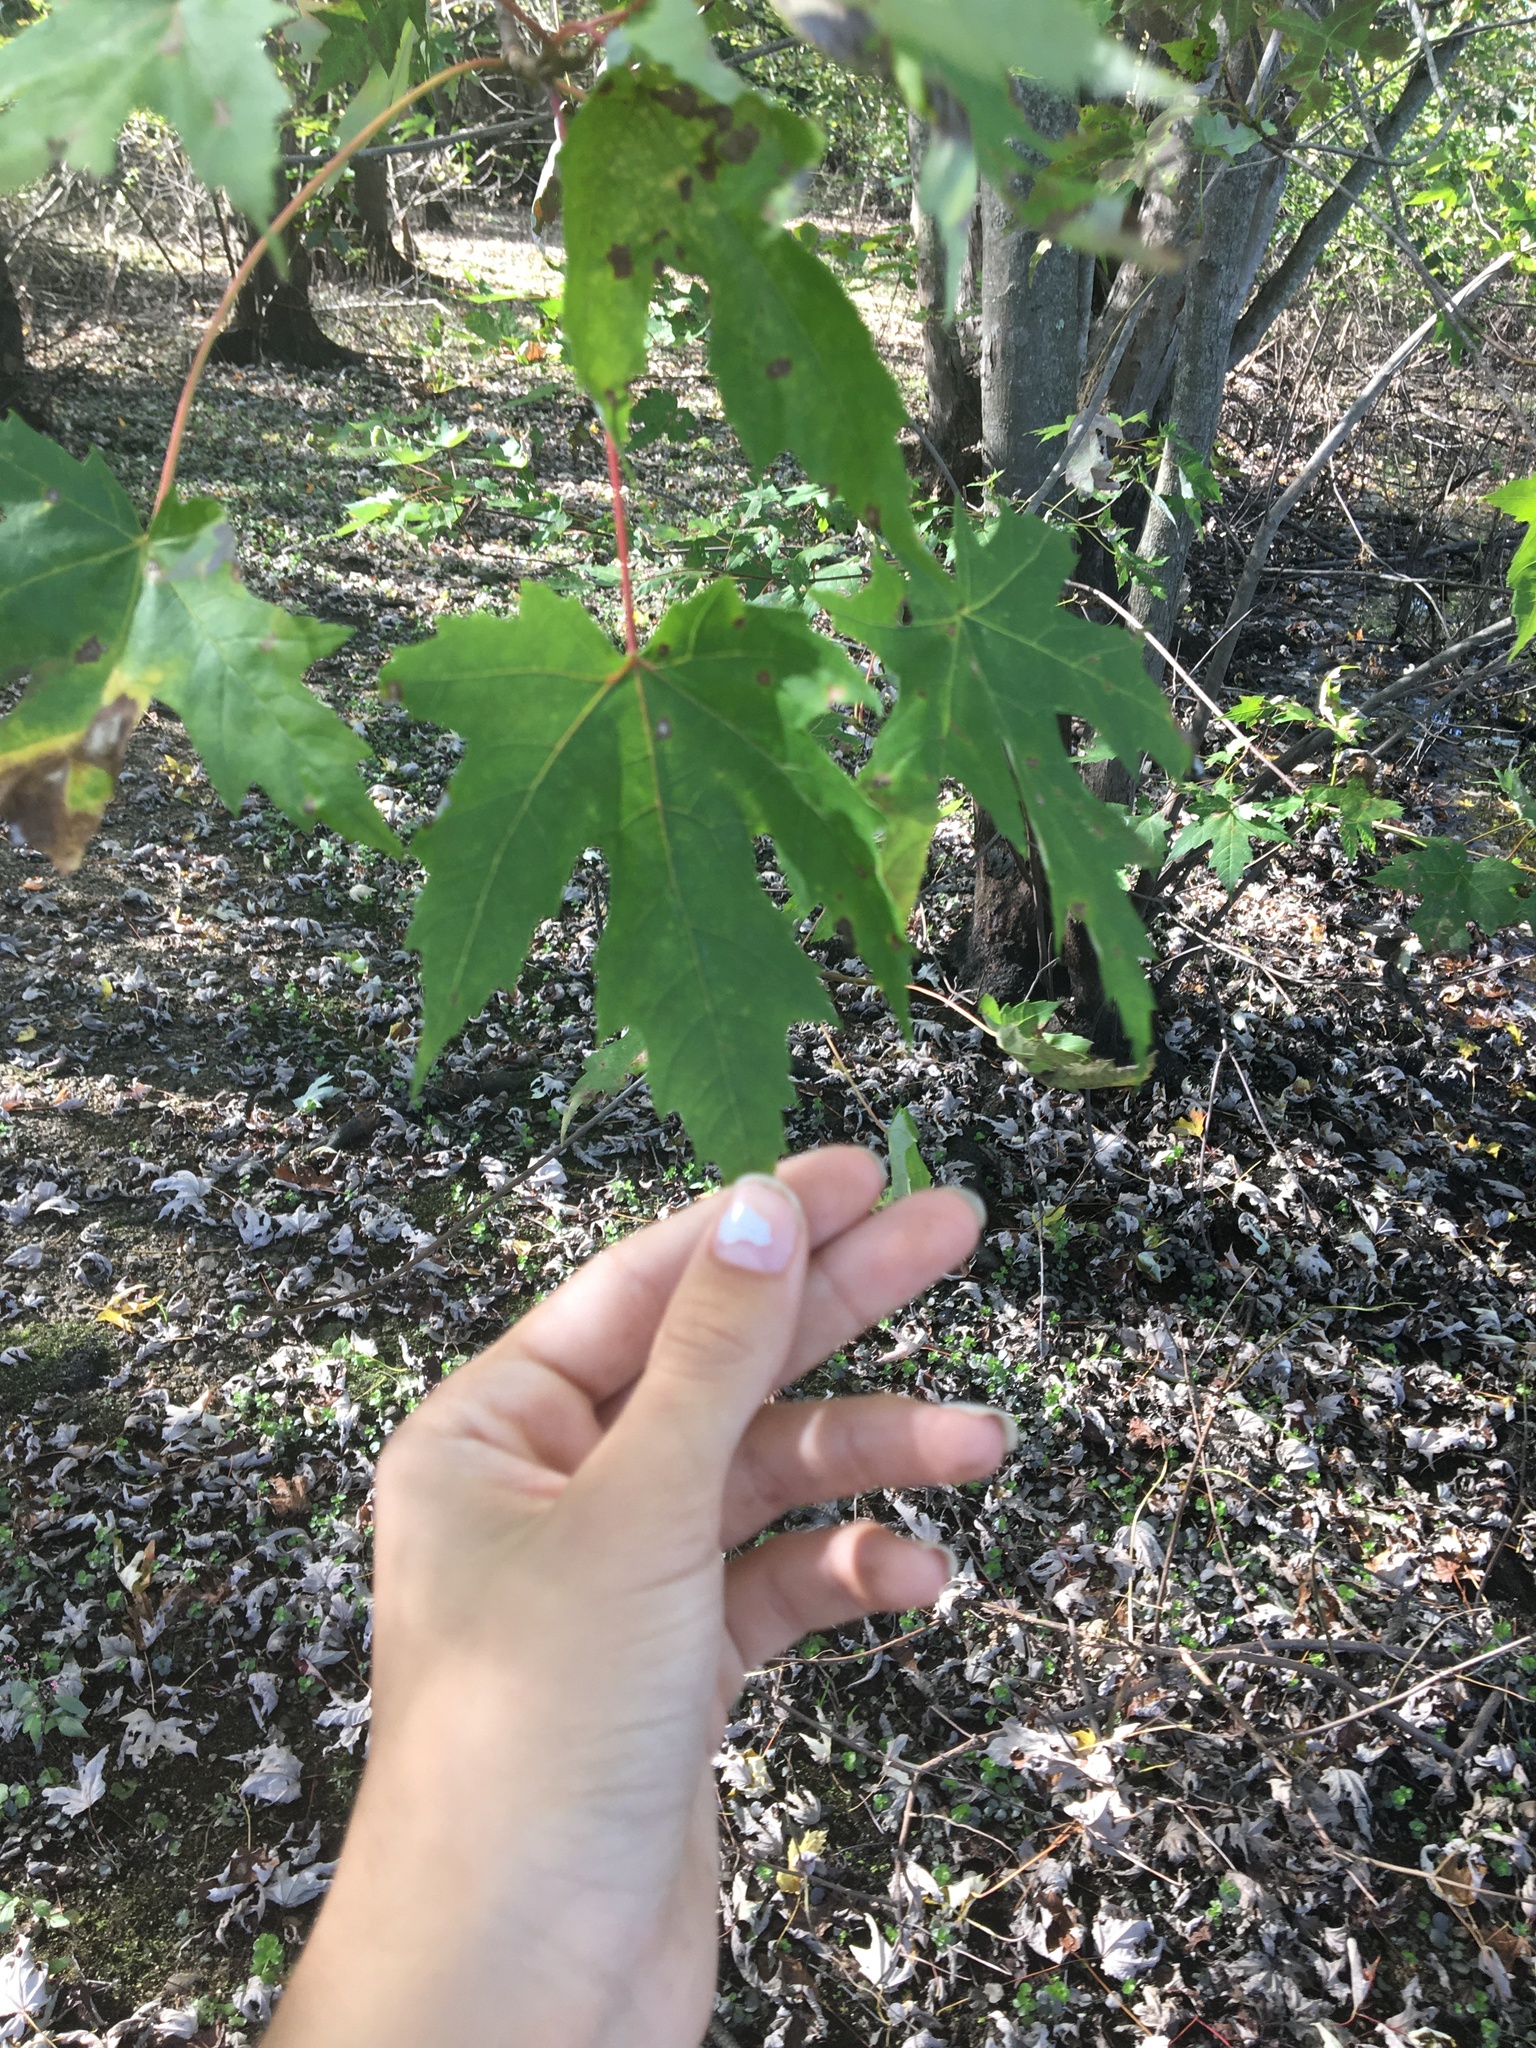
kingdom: Plantae
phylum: Tracheophyta
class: Magnoliopsida
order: Sapindales
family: Sapindaceae
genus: Acer
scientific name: Acer saccharinum
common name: Silver maple
